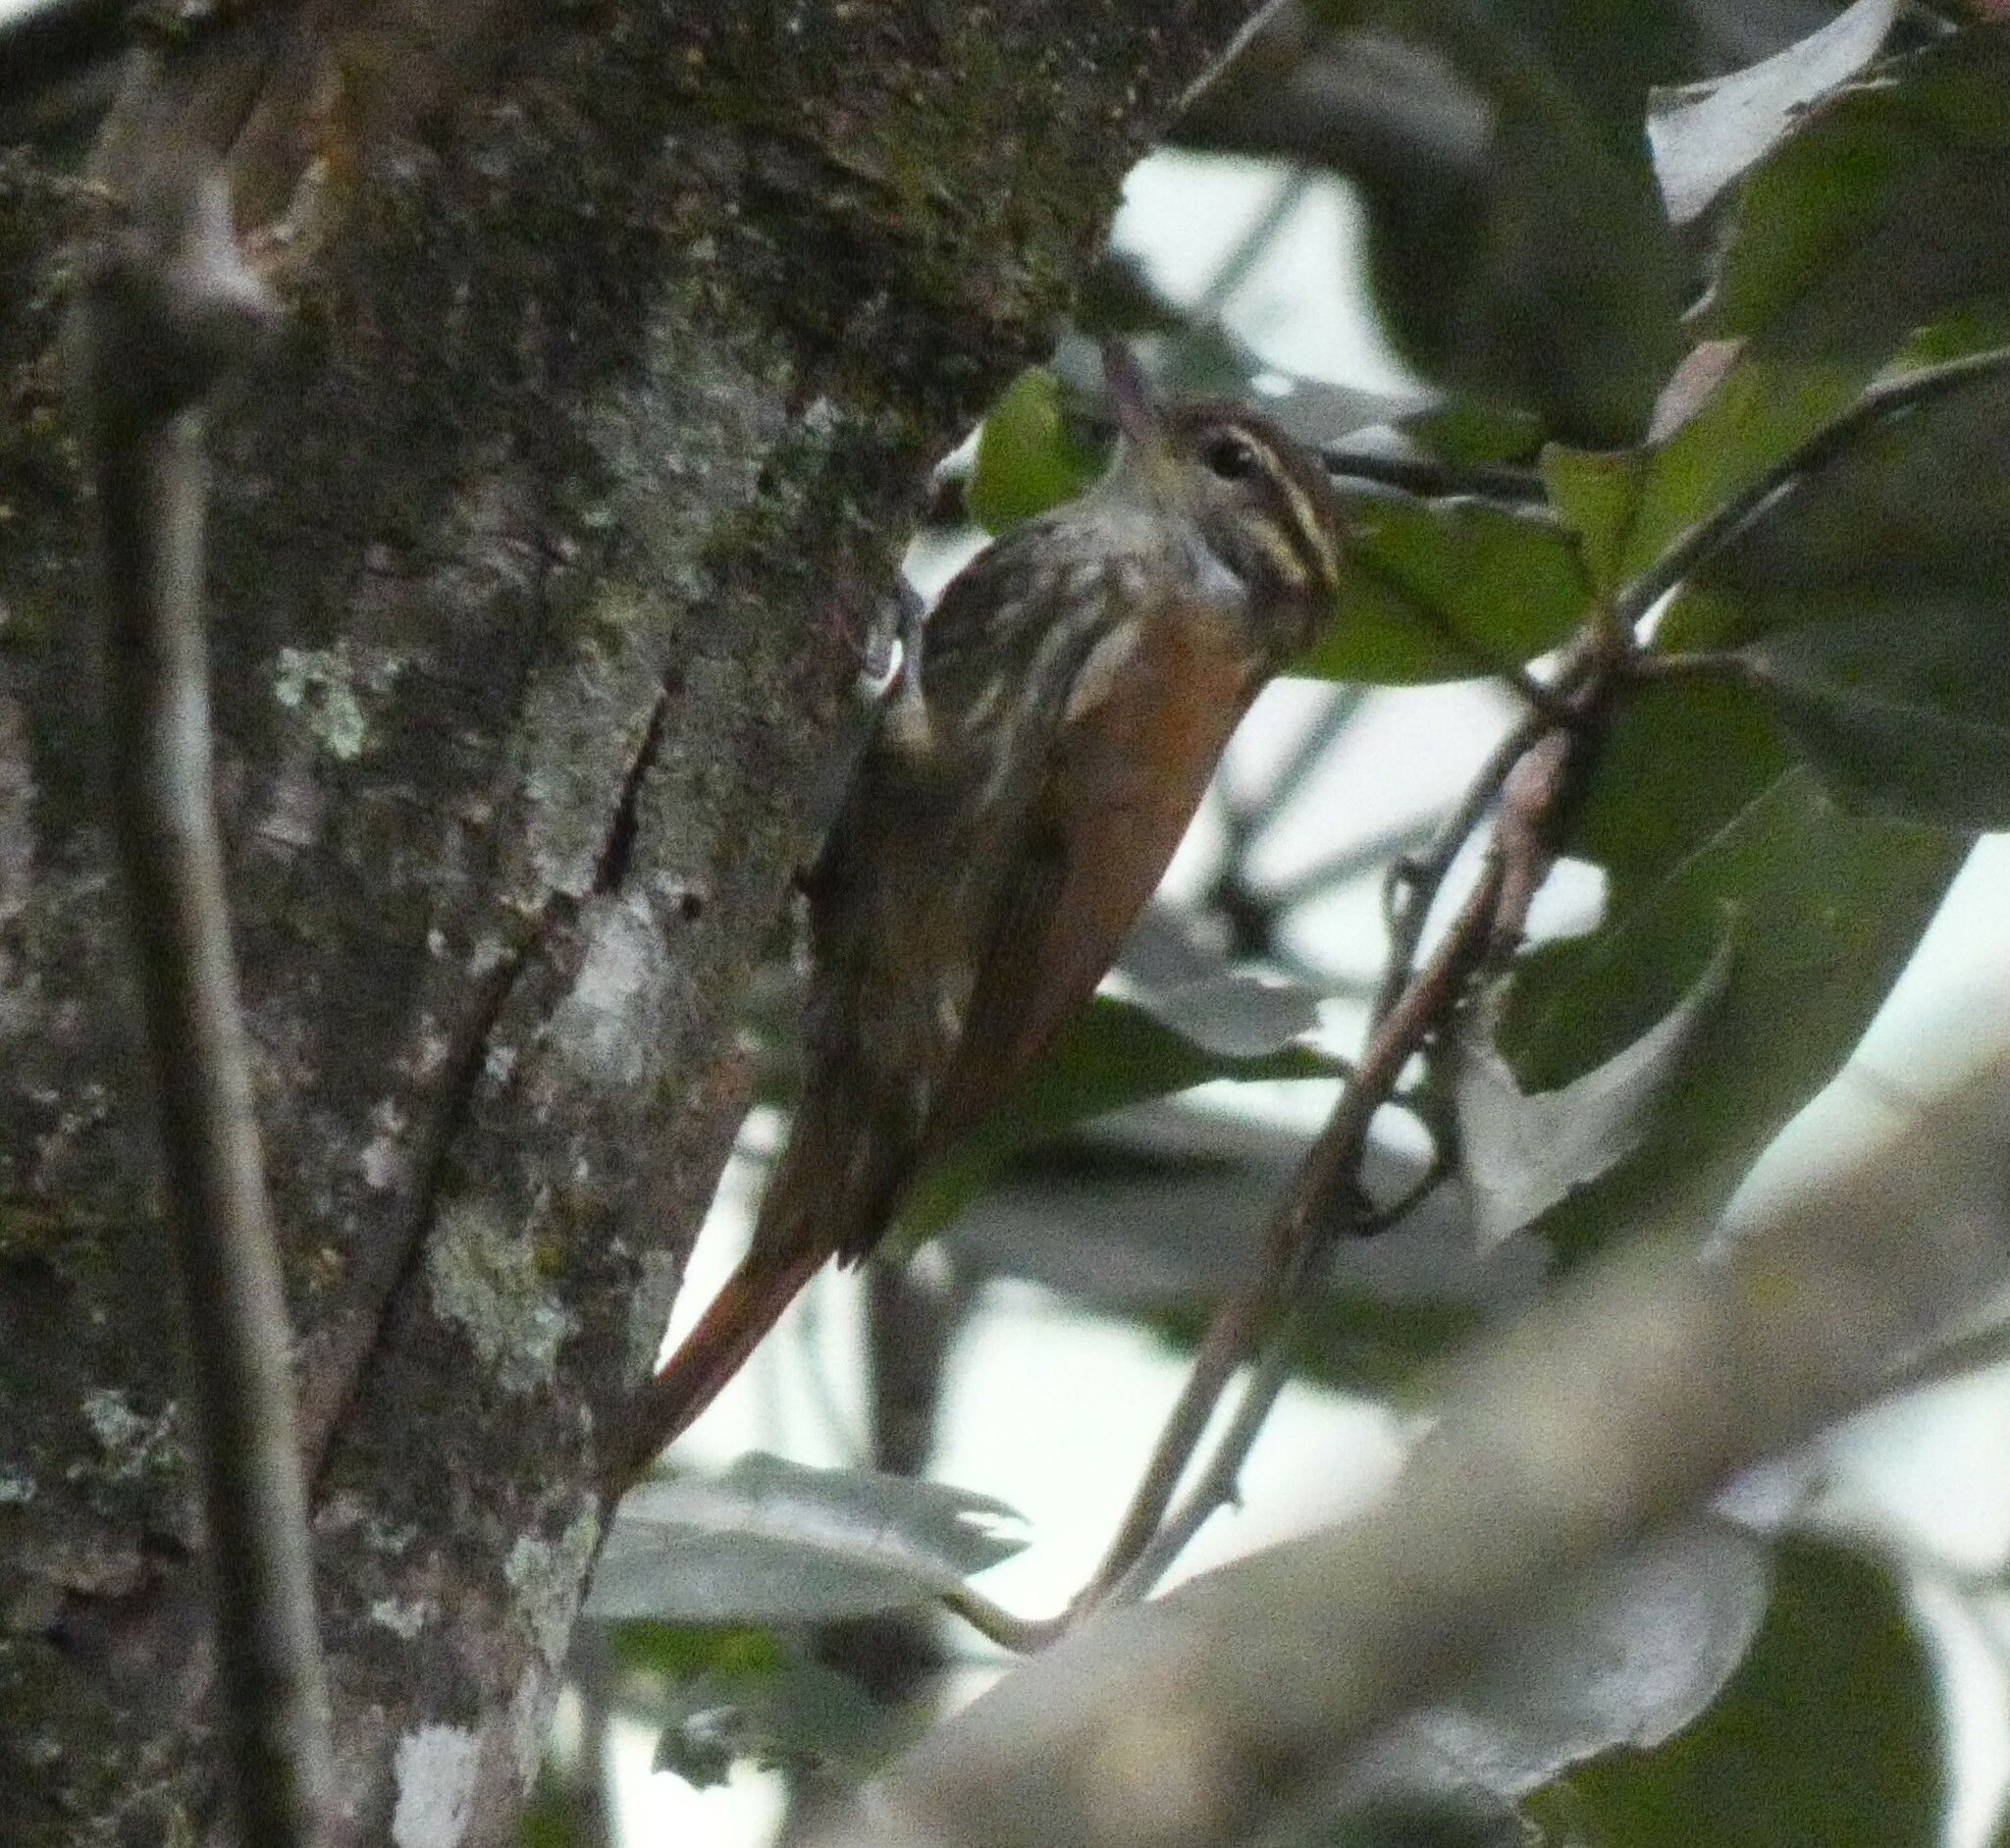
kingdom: Animalia
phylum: Chordata
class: Aves
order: Passeriformes
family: Furnariidae
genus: Xenops
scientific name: Xenops rutilans
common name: Streaked xenops
